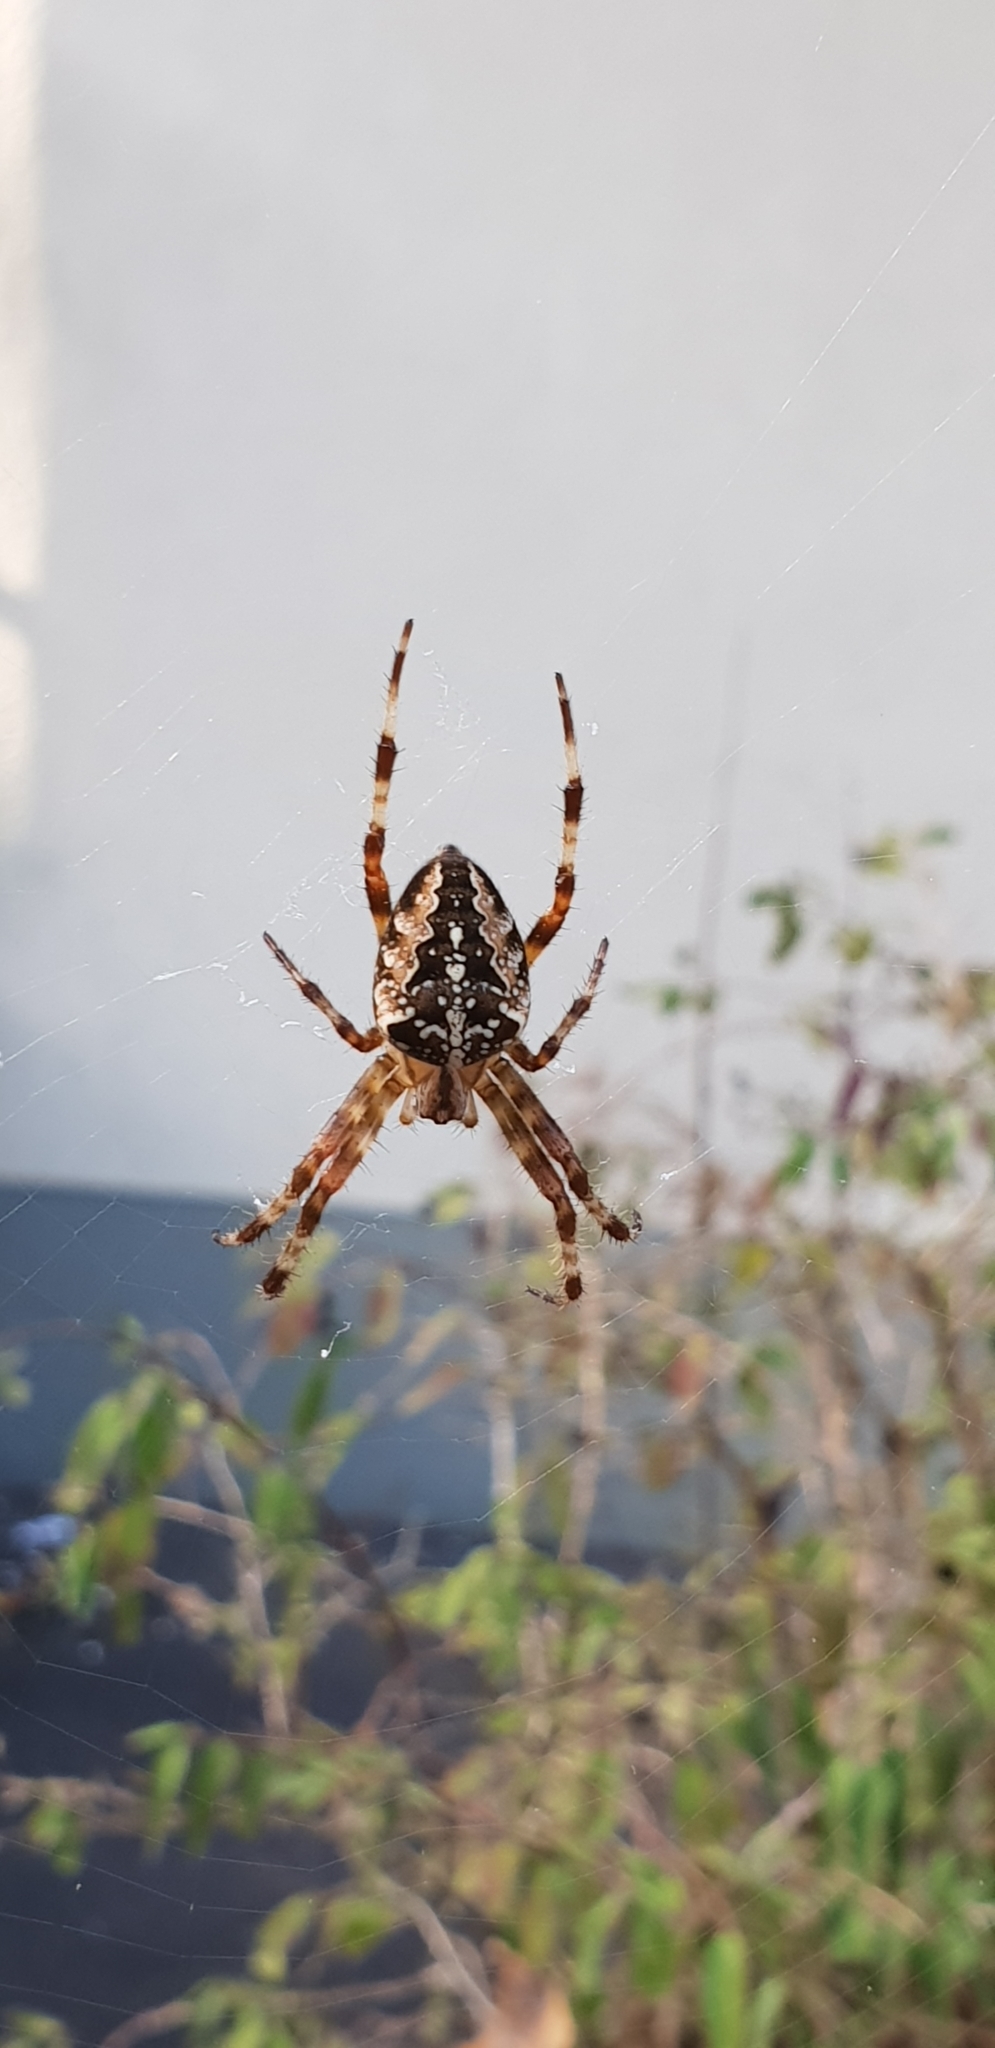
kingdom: Animalia
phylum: Arthropoda
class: Arachnida
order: Araneae
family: Araneidae
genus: Araneus
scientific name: Araneus diadematus
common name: Cross orbweaver
